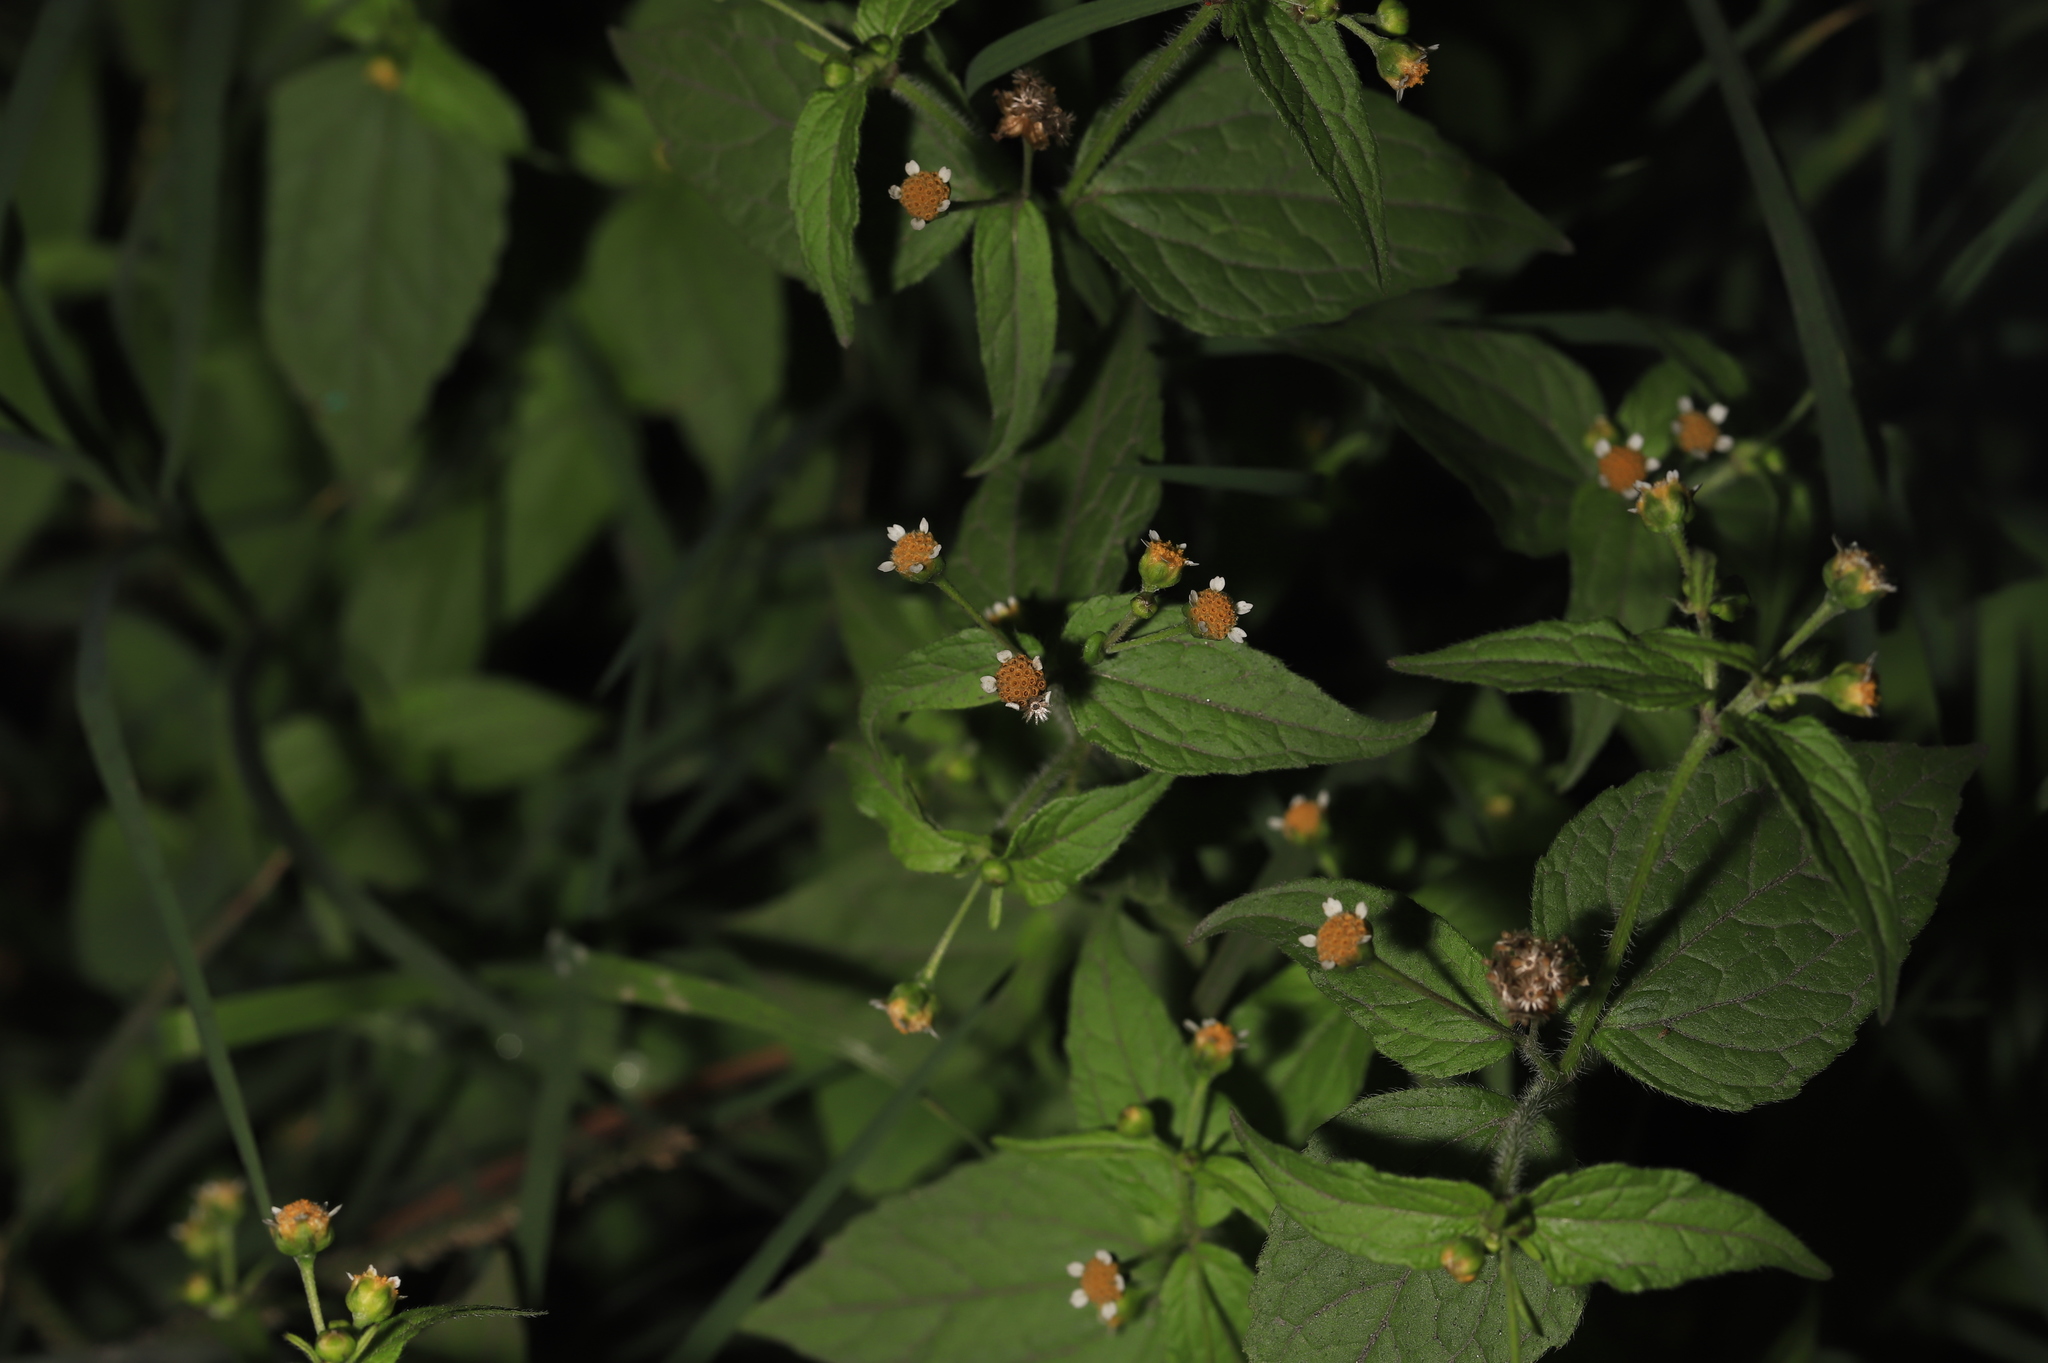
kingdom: Plantae
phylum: Tracheophyta
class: Magnoliopsida
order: Asterales
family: Asteraceae
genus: Galinsoga
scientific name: Galinsoga quadriradiata
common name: Shaggy soldier
